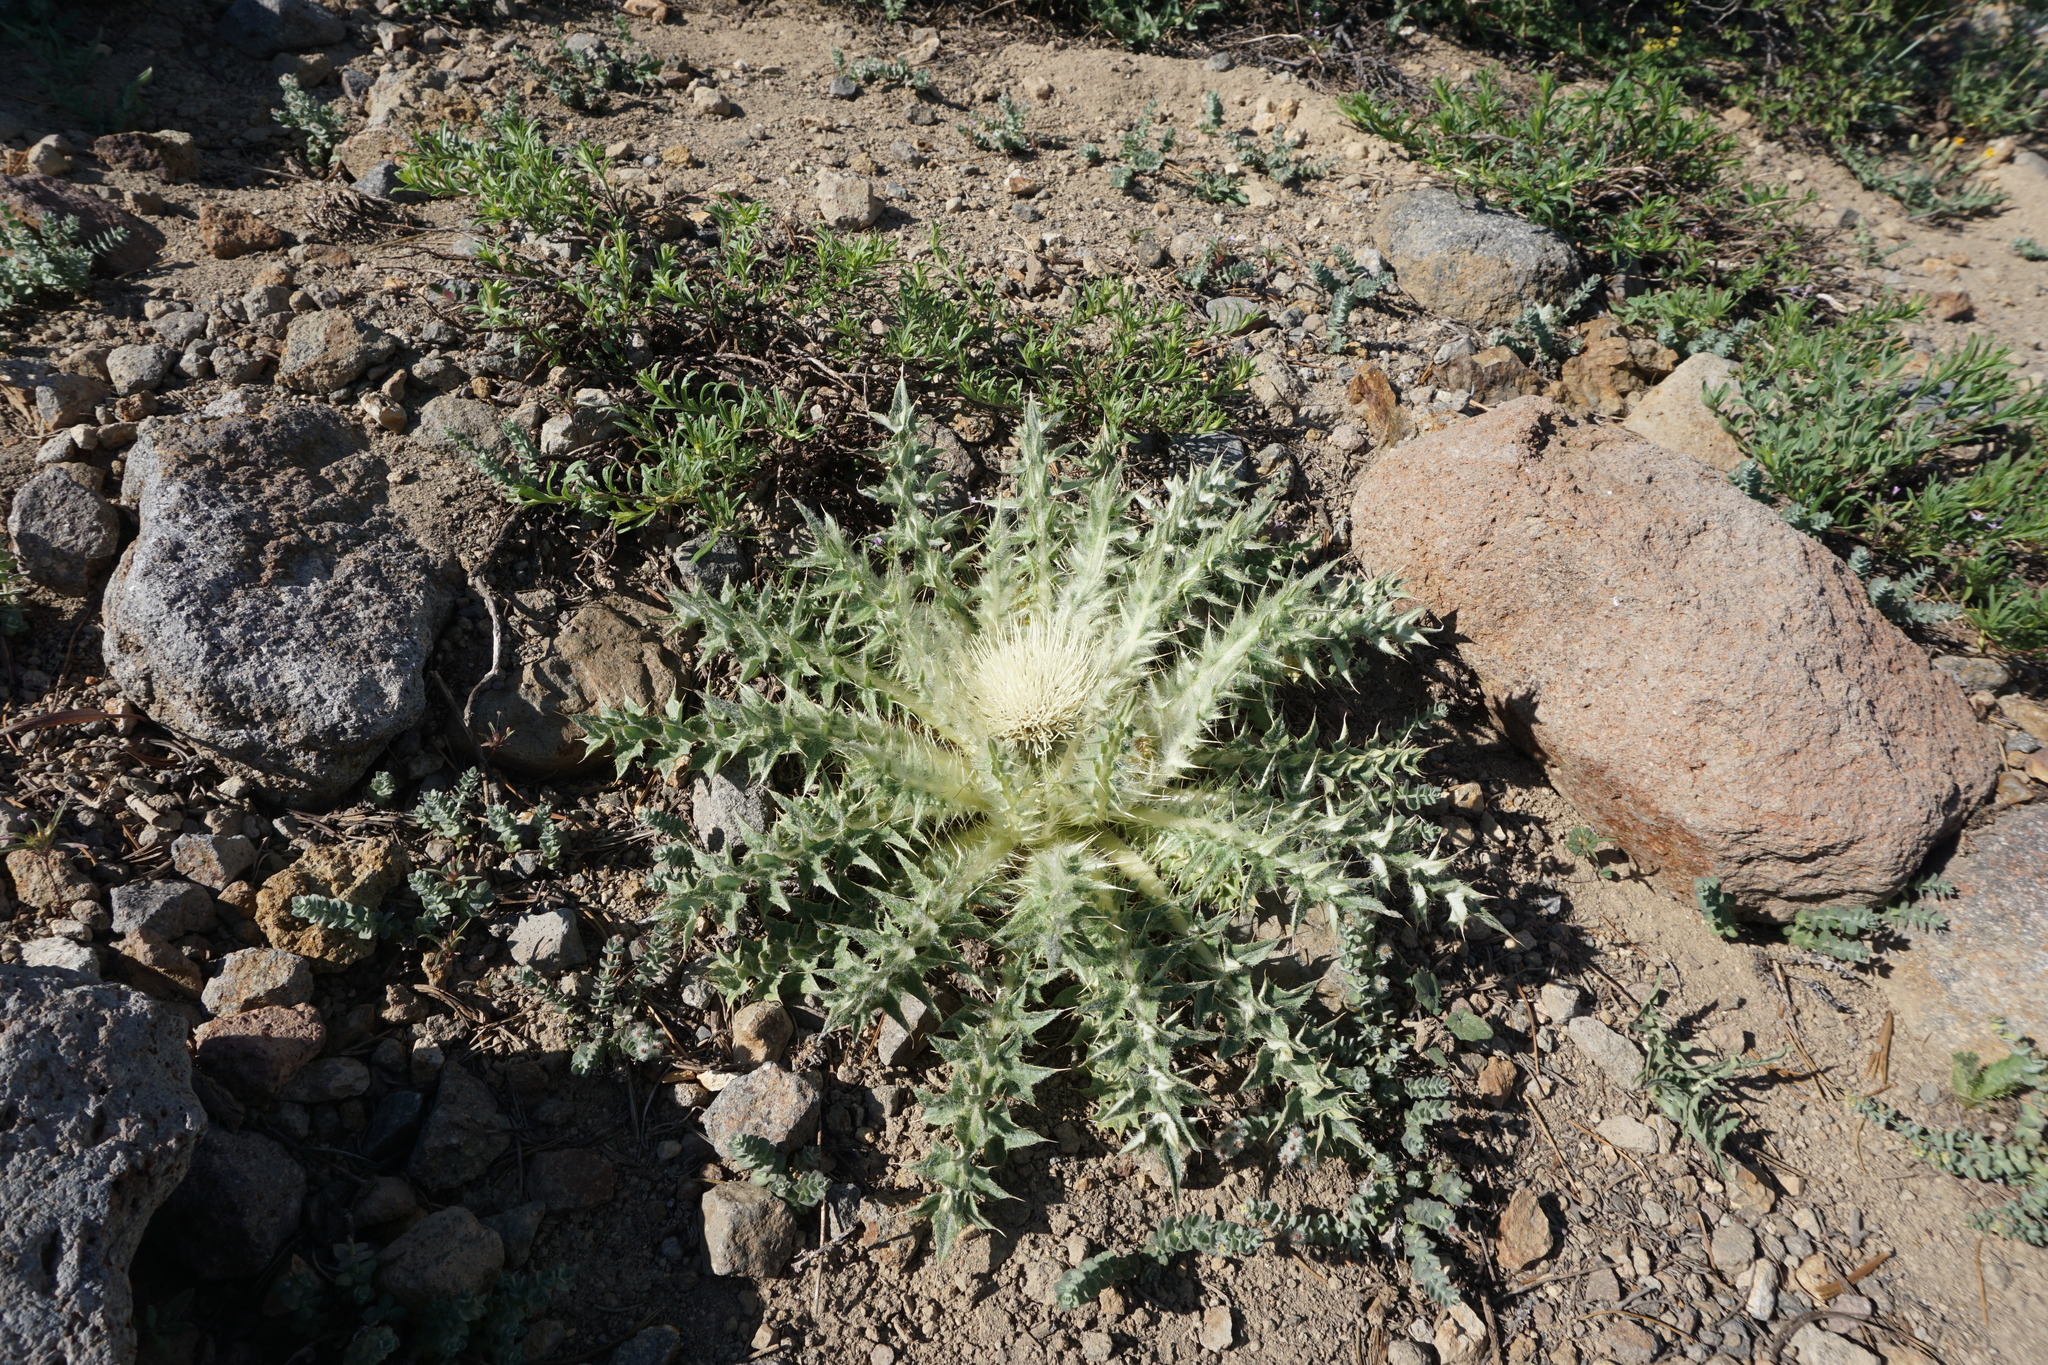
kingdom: Plantae
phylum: Tracheophyta
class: Magnoliopsida
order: Asterales
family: Asteraceae
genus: Cirsium
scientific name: Cirsium tioganum
